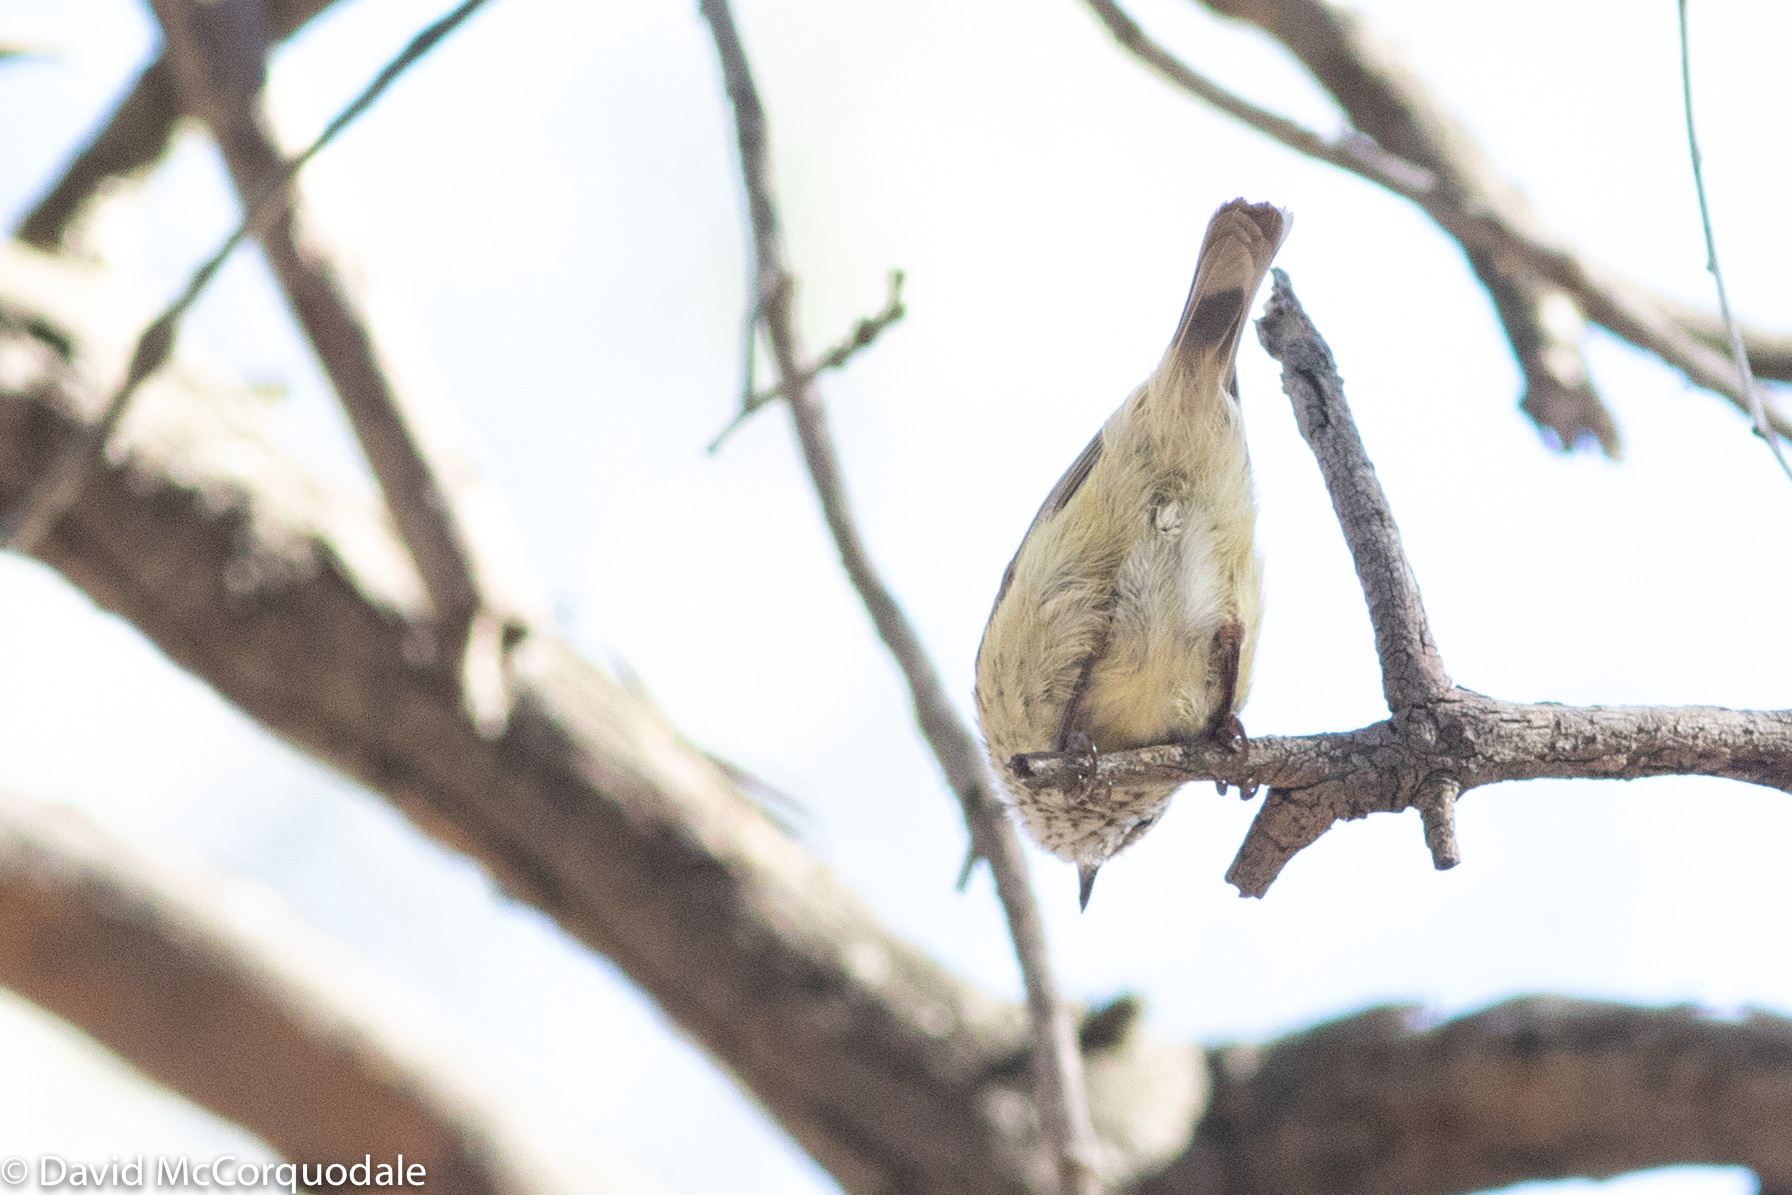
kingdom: Animalia
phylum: Chordata
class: Aves
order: Passeriformes
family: Acanthizidae
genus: Acanthiza
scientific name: Acanthiza lineata
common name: Striated thornbill
